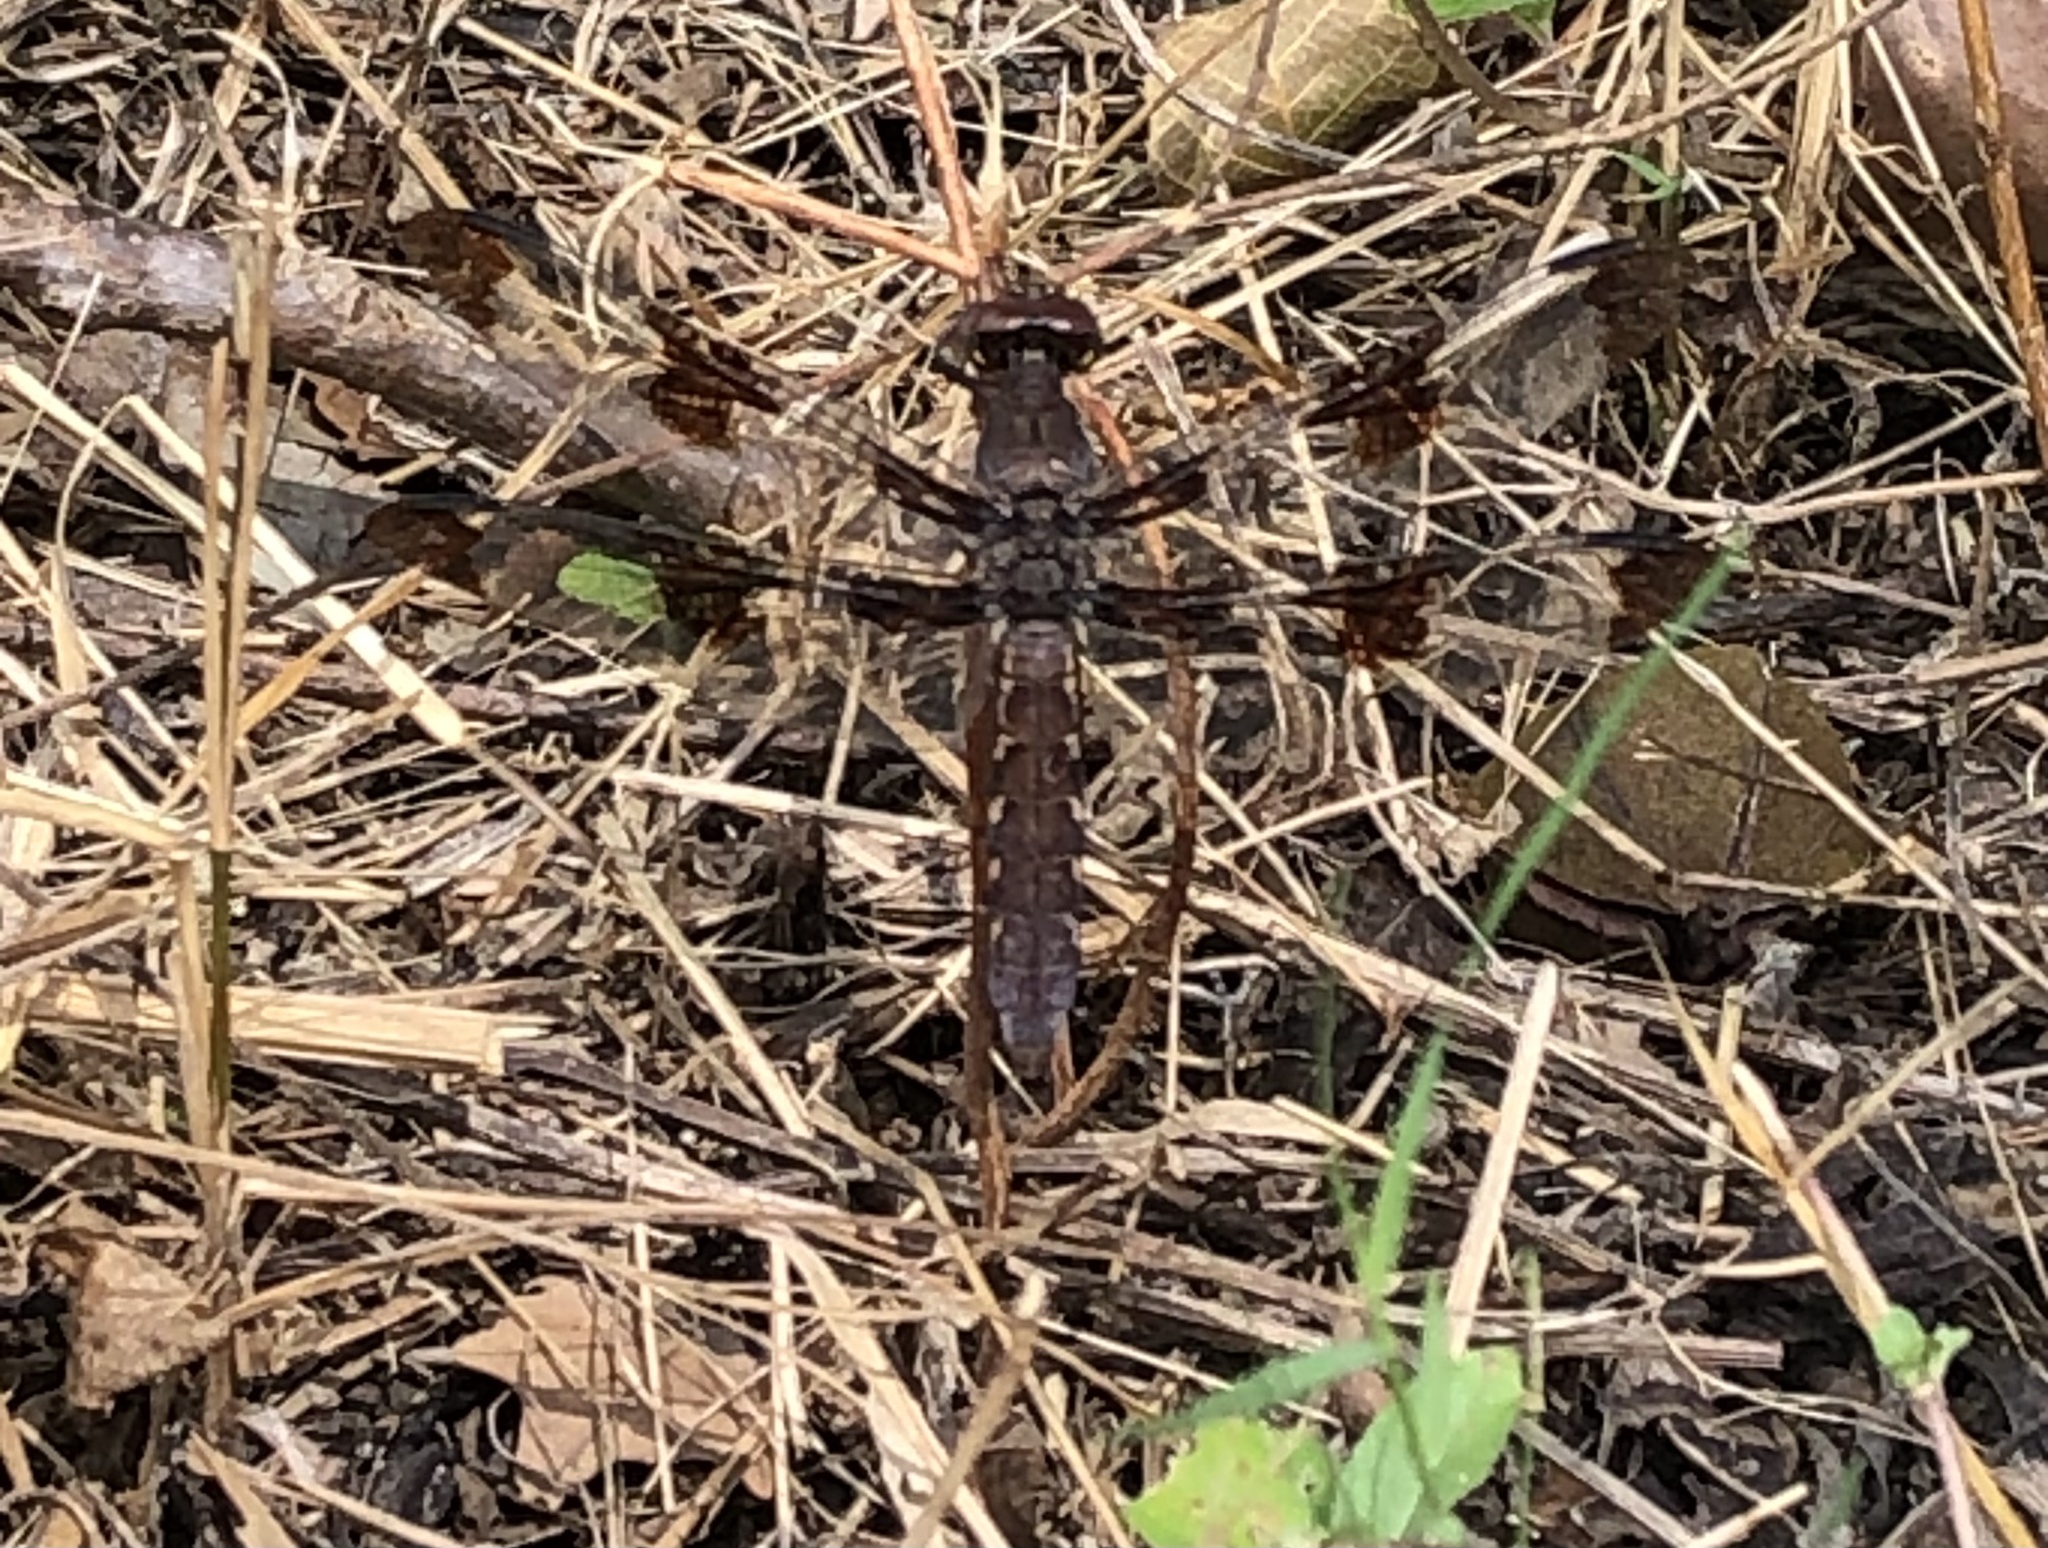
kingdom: Animalia
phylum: Arthropoda
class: Insecta
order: Odonata
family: Libellulidae
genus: Plathemis
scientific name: Plathemis lydia
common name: Common whitetail
